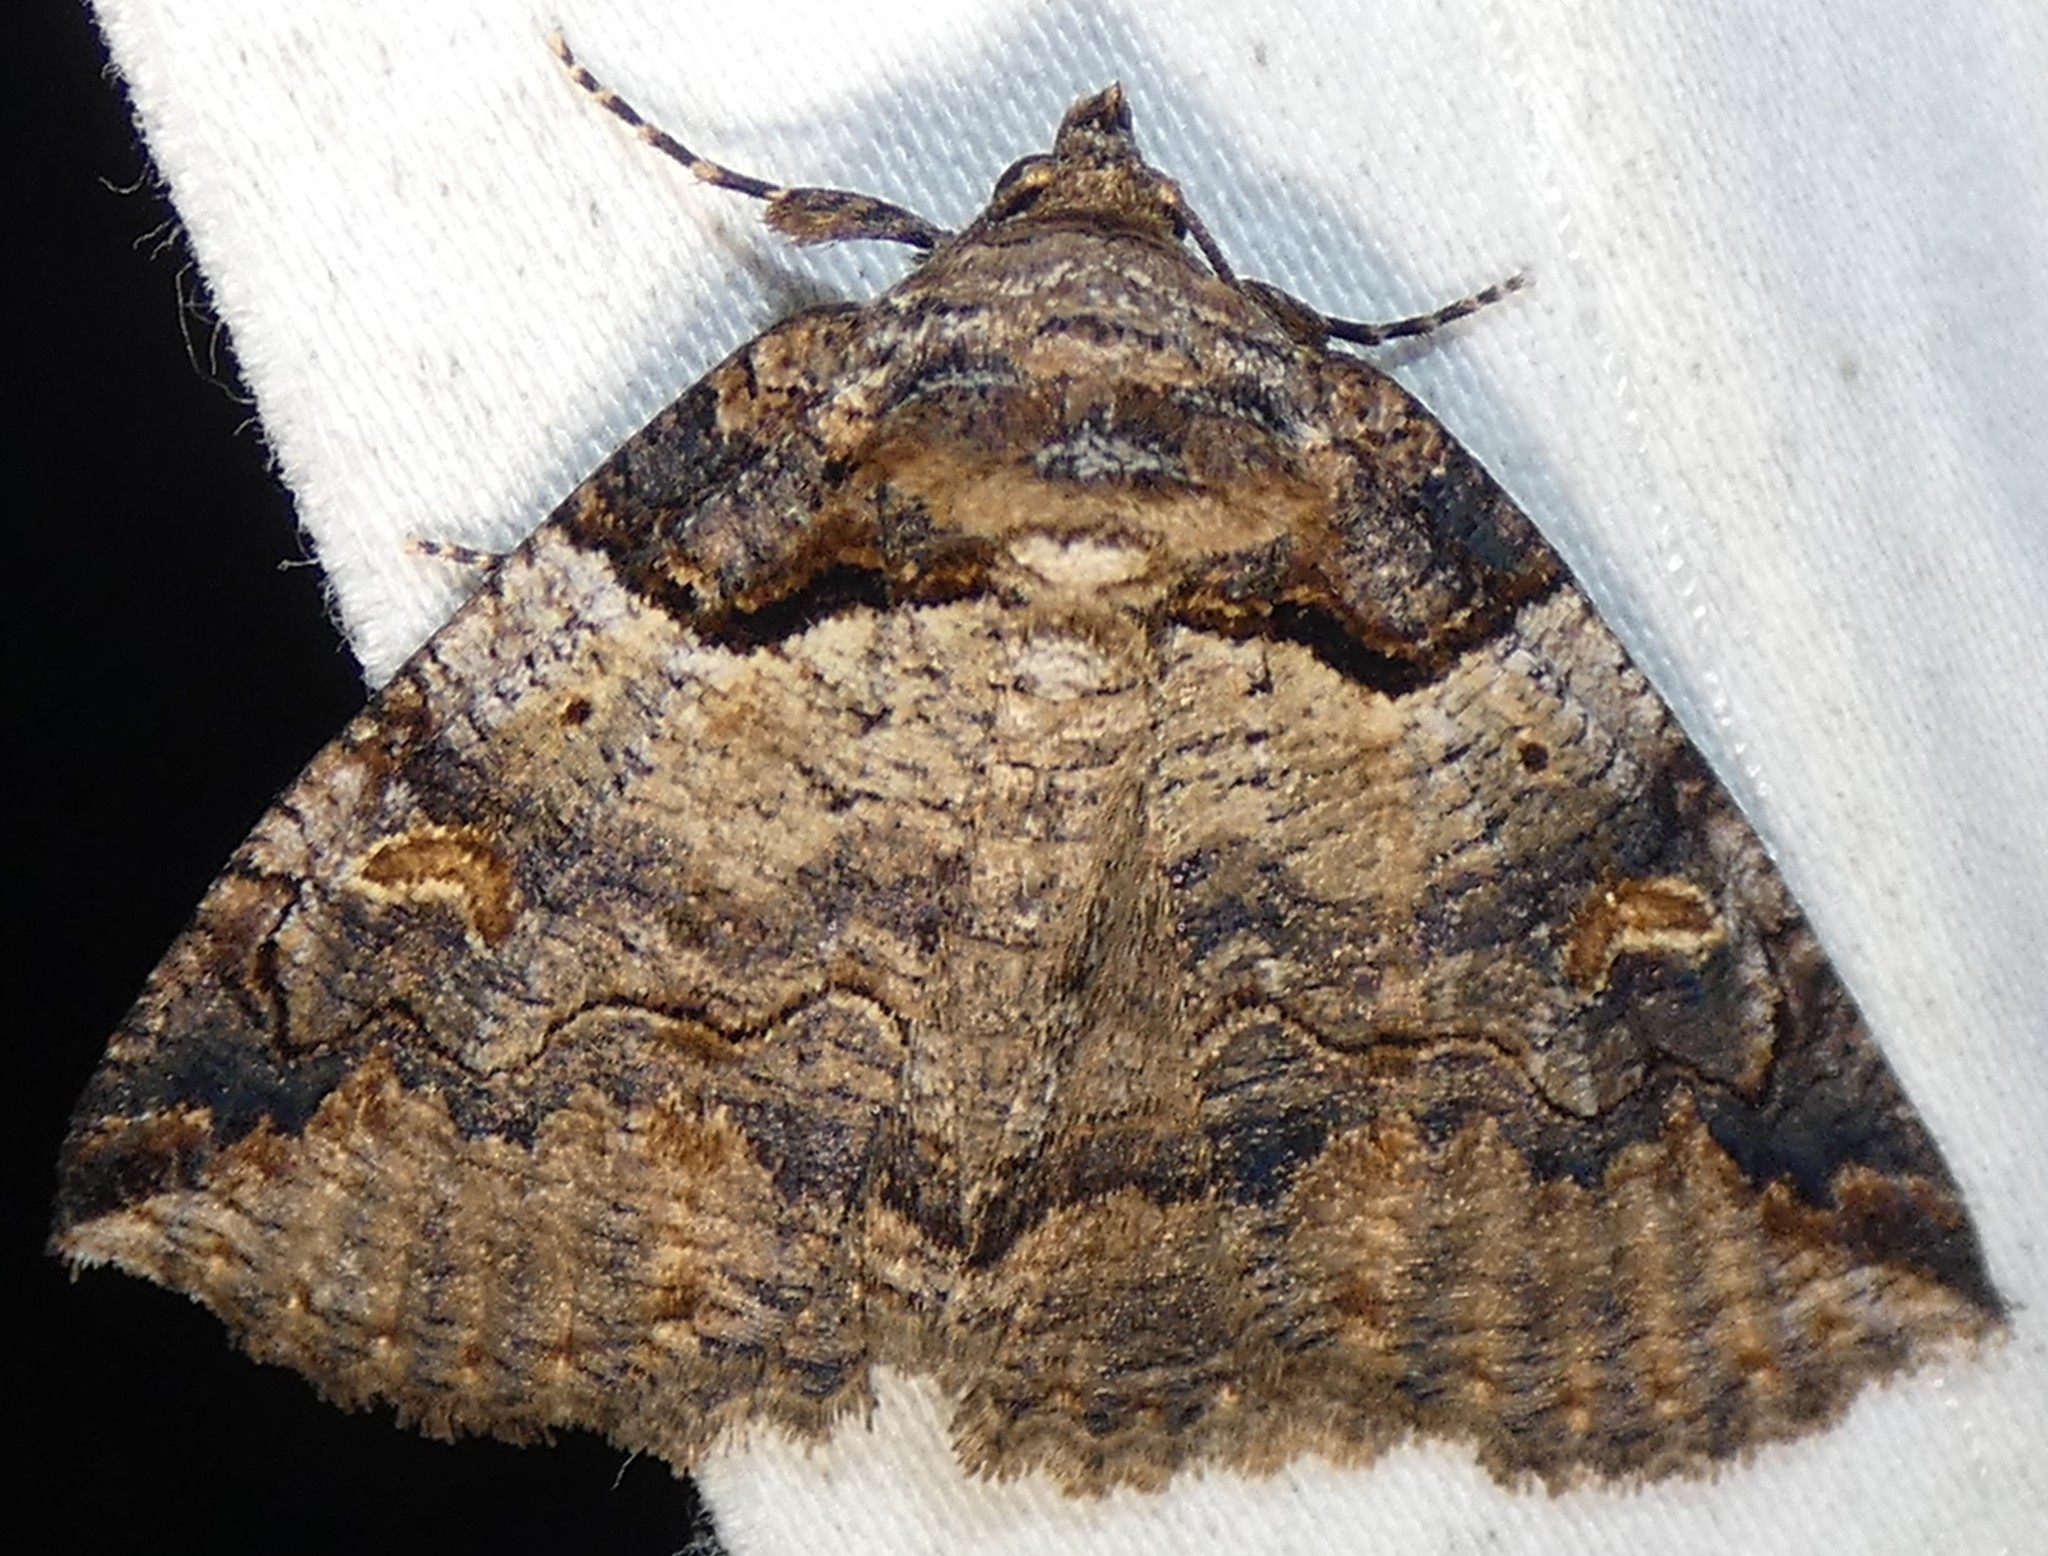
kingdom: Animalia
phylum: Arthropoda
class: Insecta
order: Lepidoptera
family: Erebidae
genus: Zale
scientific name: Zale intenta
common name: Intent zale moth
